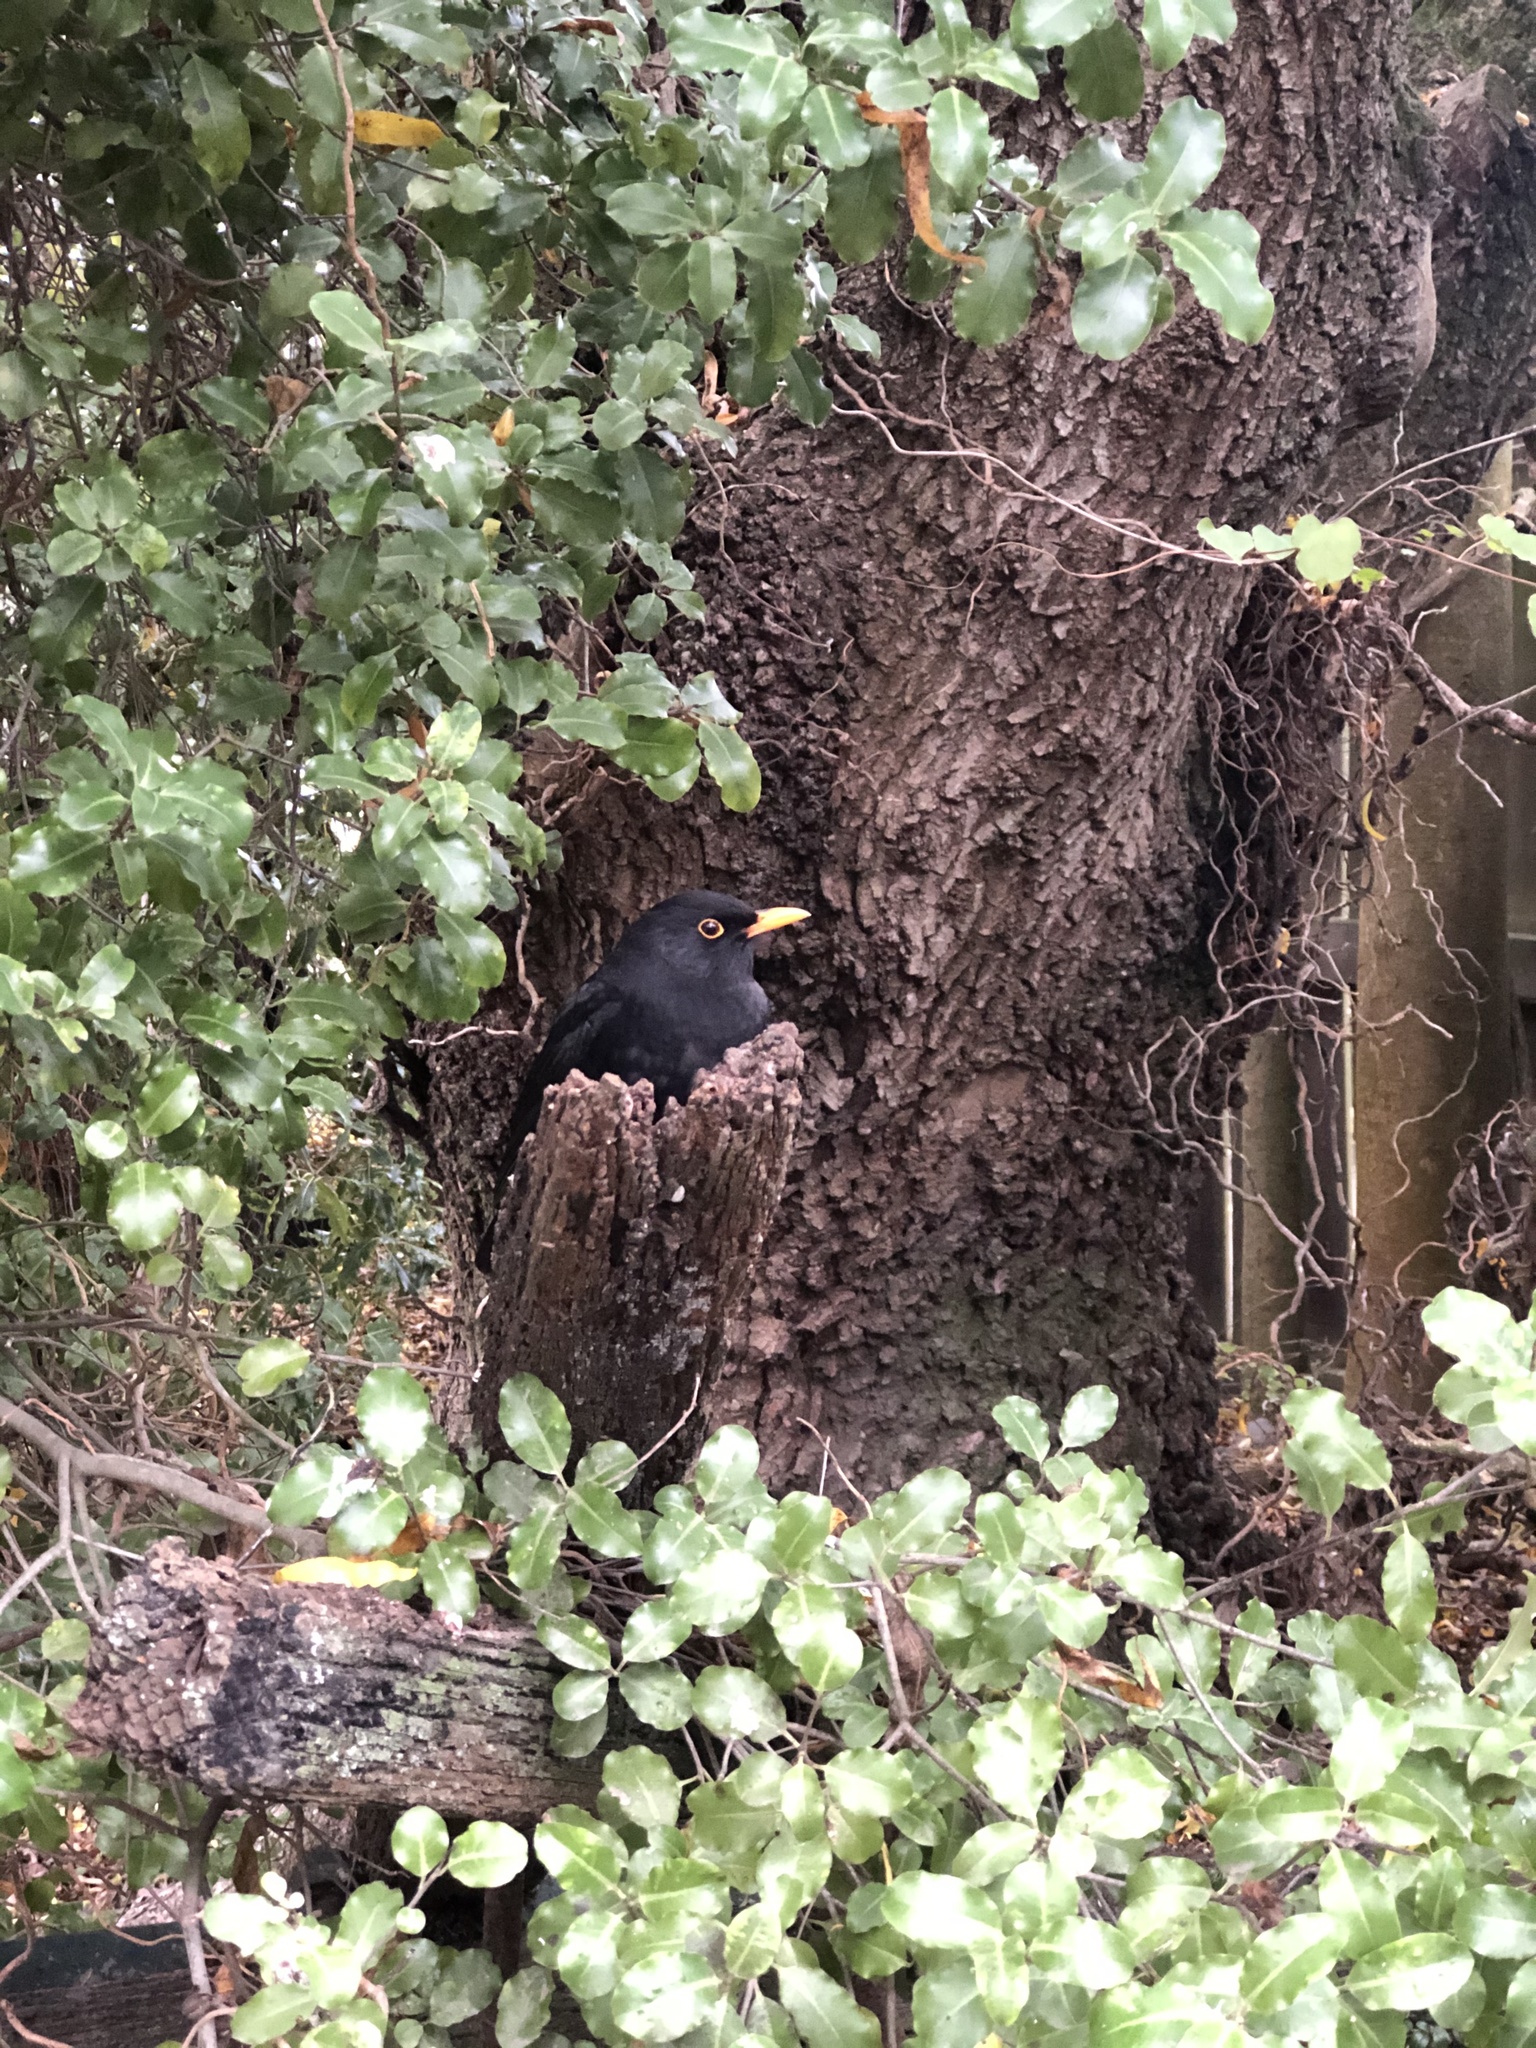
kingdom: Animalia
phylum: Chordata
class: Aves
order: Passeriformes
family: Turdidae
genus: Turdus
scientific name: Turdus merula
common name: Common blackbird
